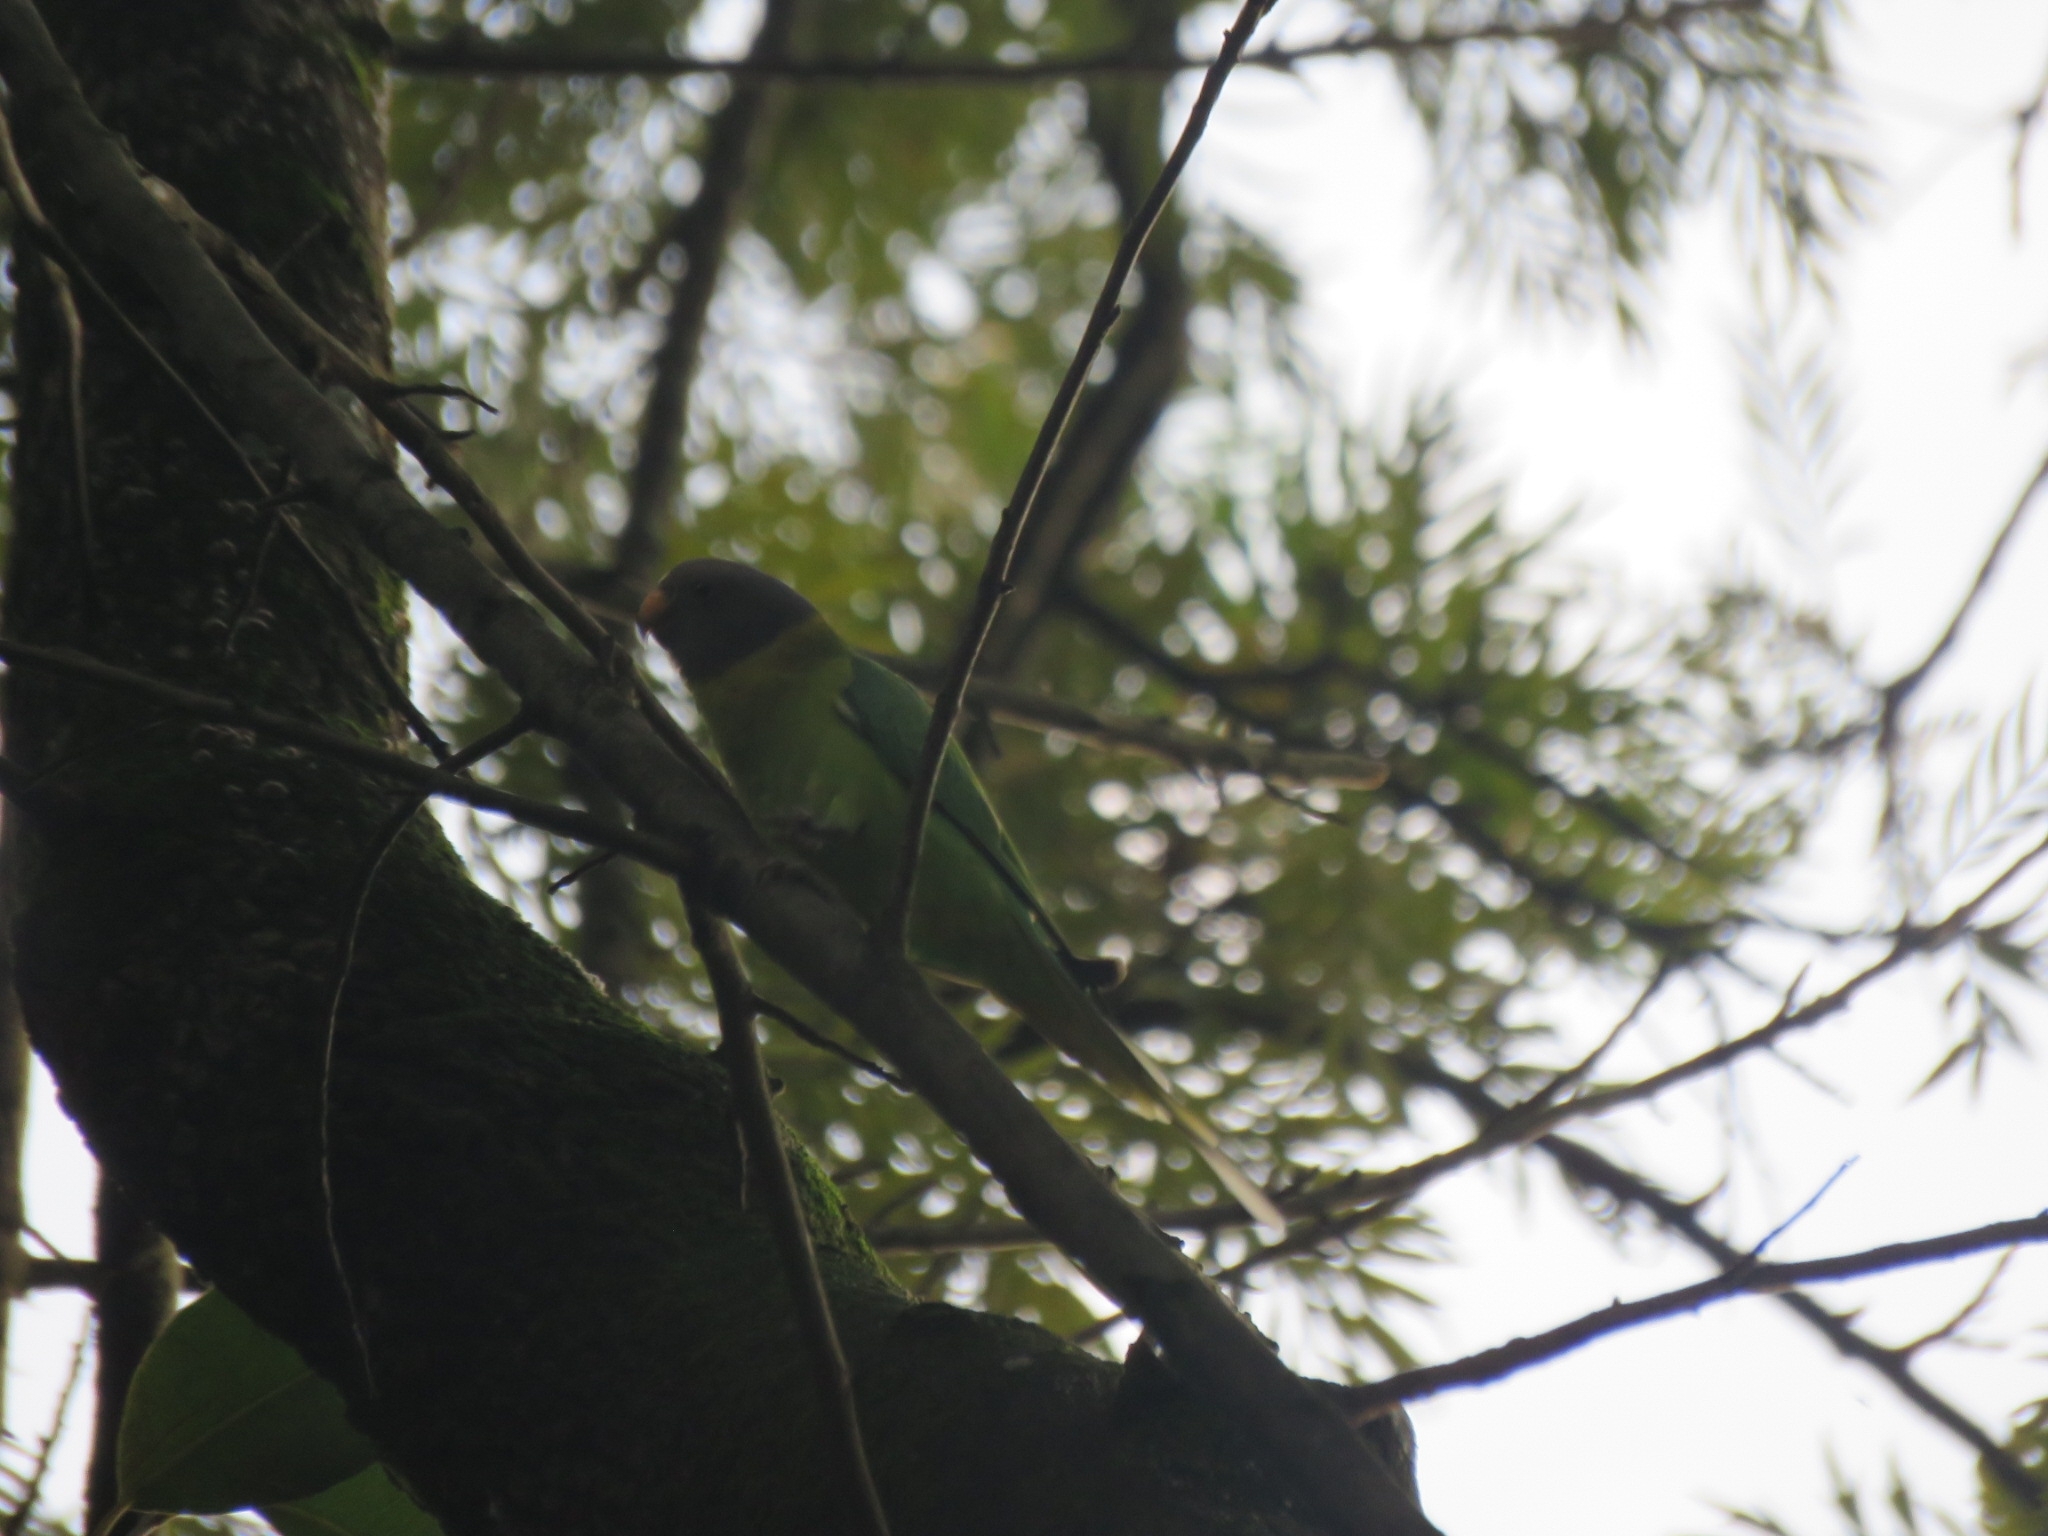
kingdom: Animalia
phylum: Chordata
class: Aves
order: Psittaciformes
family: Psittacidae
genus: Psittacula
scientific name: Psittacula cyanocephala
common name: Plum-headed parakeet
